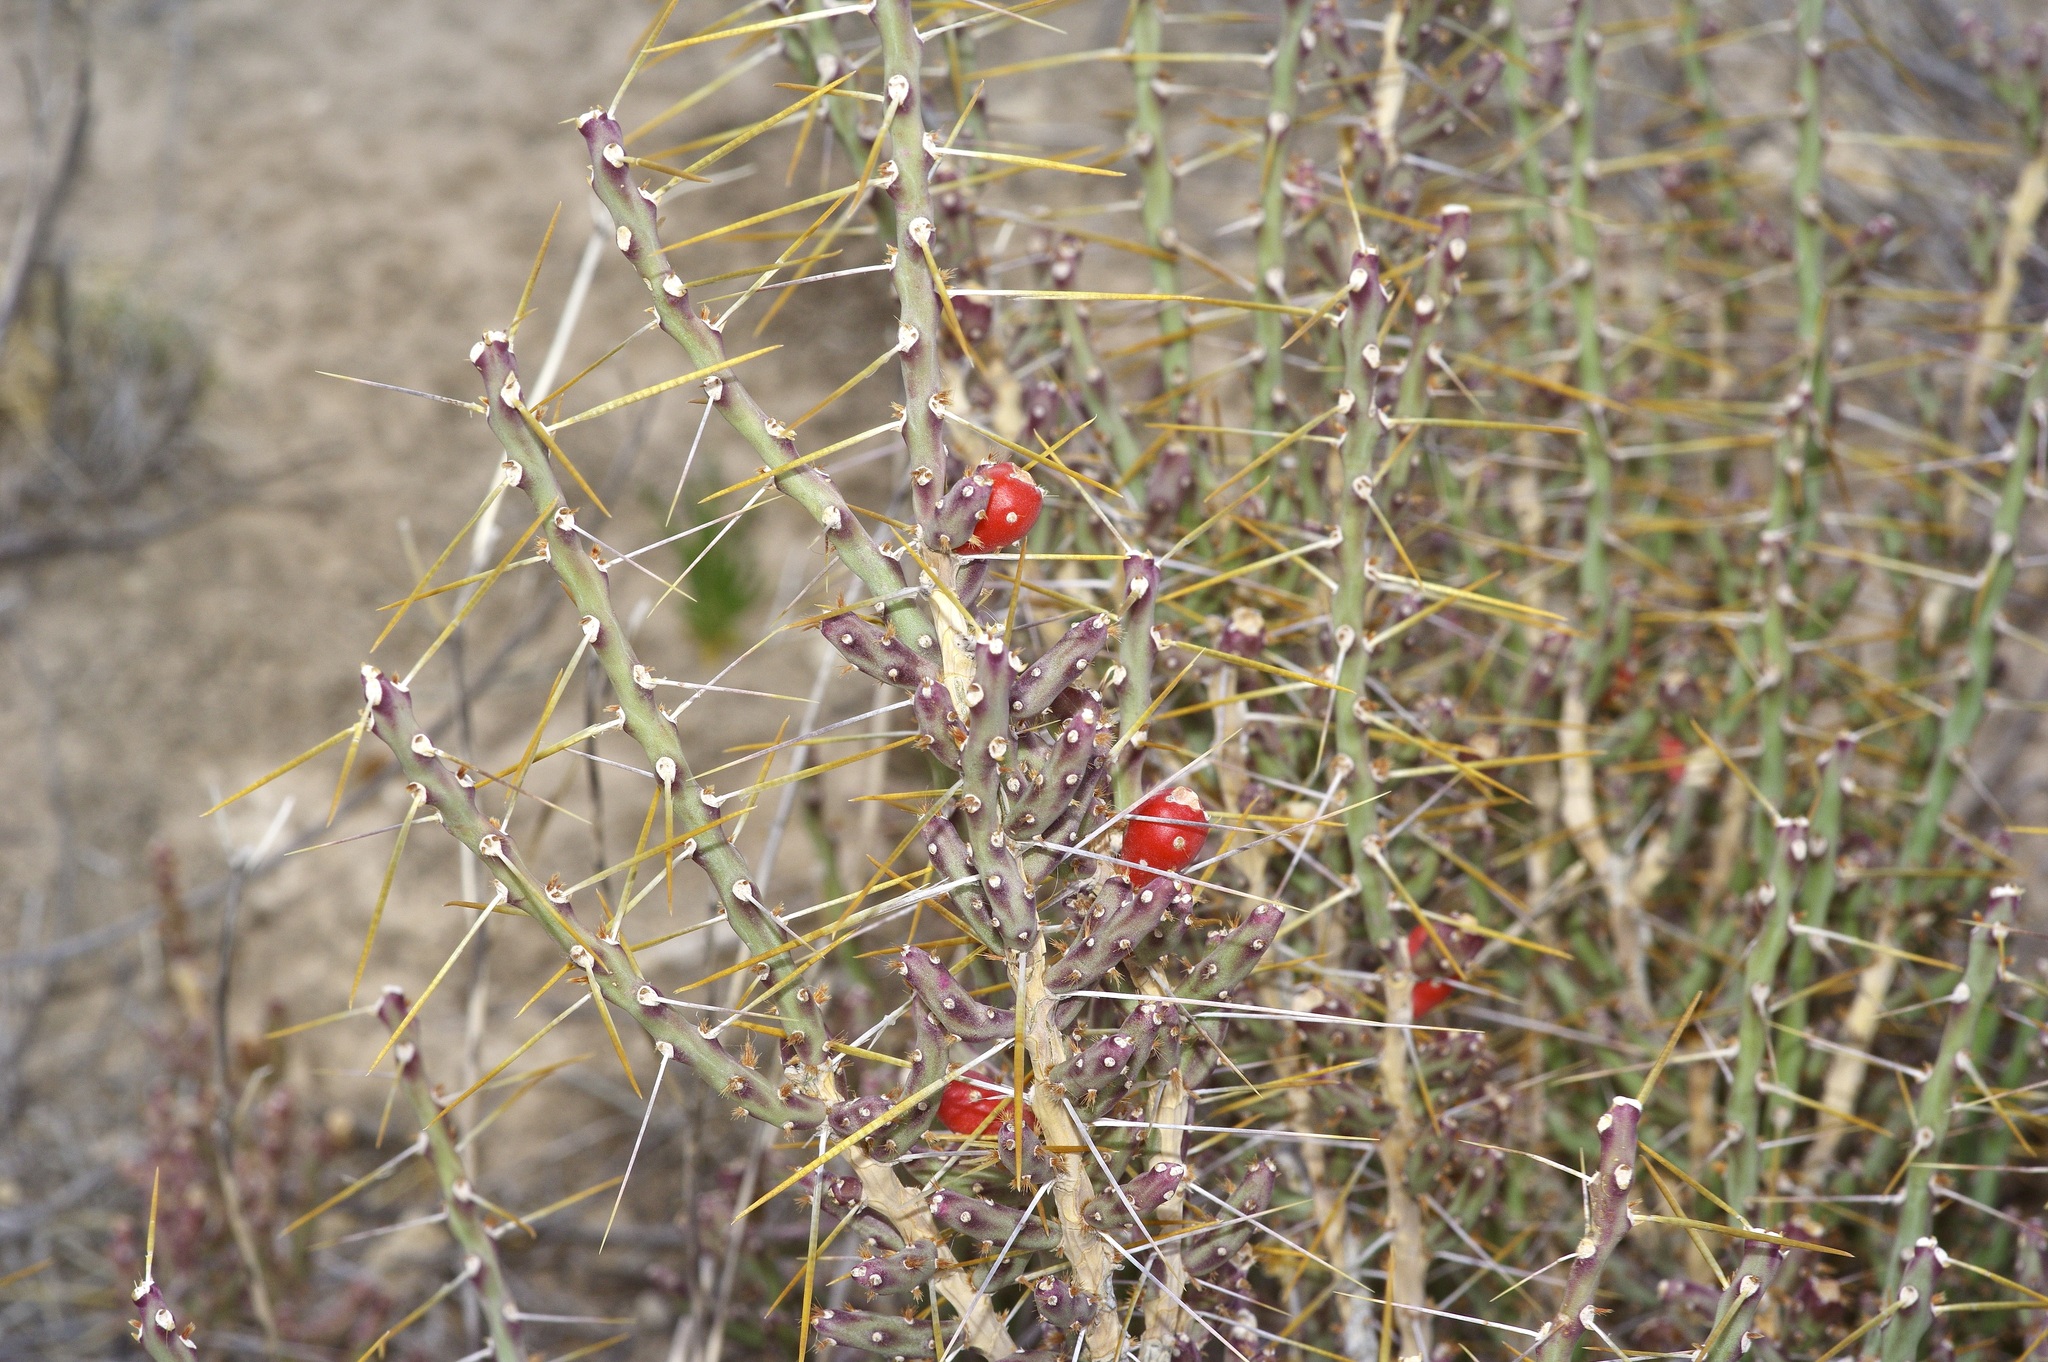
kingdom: Plantae
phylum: Tracheophyta
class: Magnoliopsida
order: Caryophyllales
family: Cactaceae
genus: Cylindropuntia
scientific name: Cylindropuntia leptocaulis
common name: Christmas cactus
